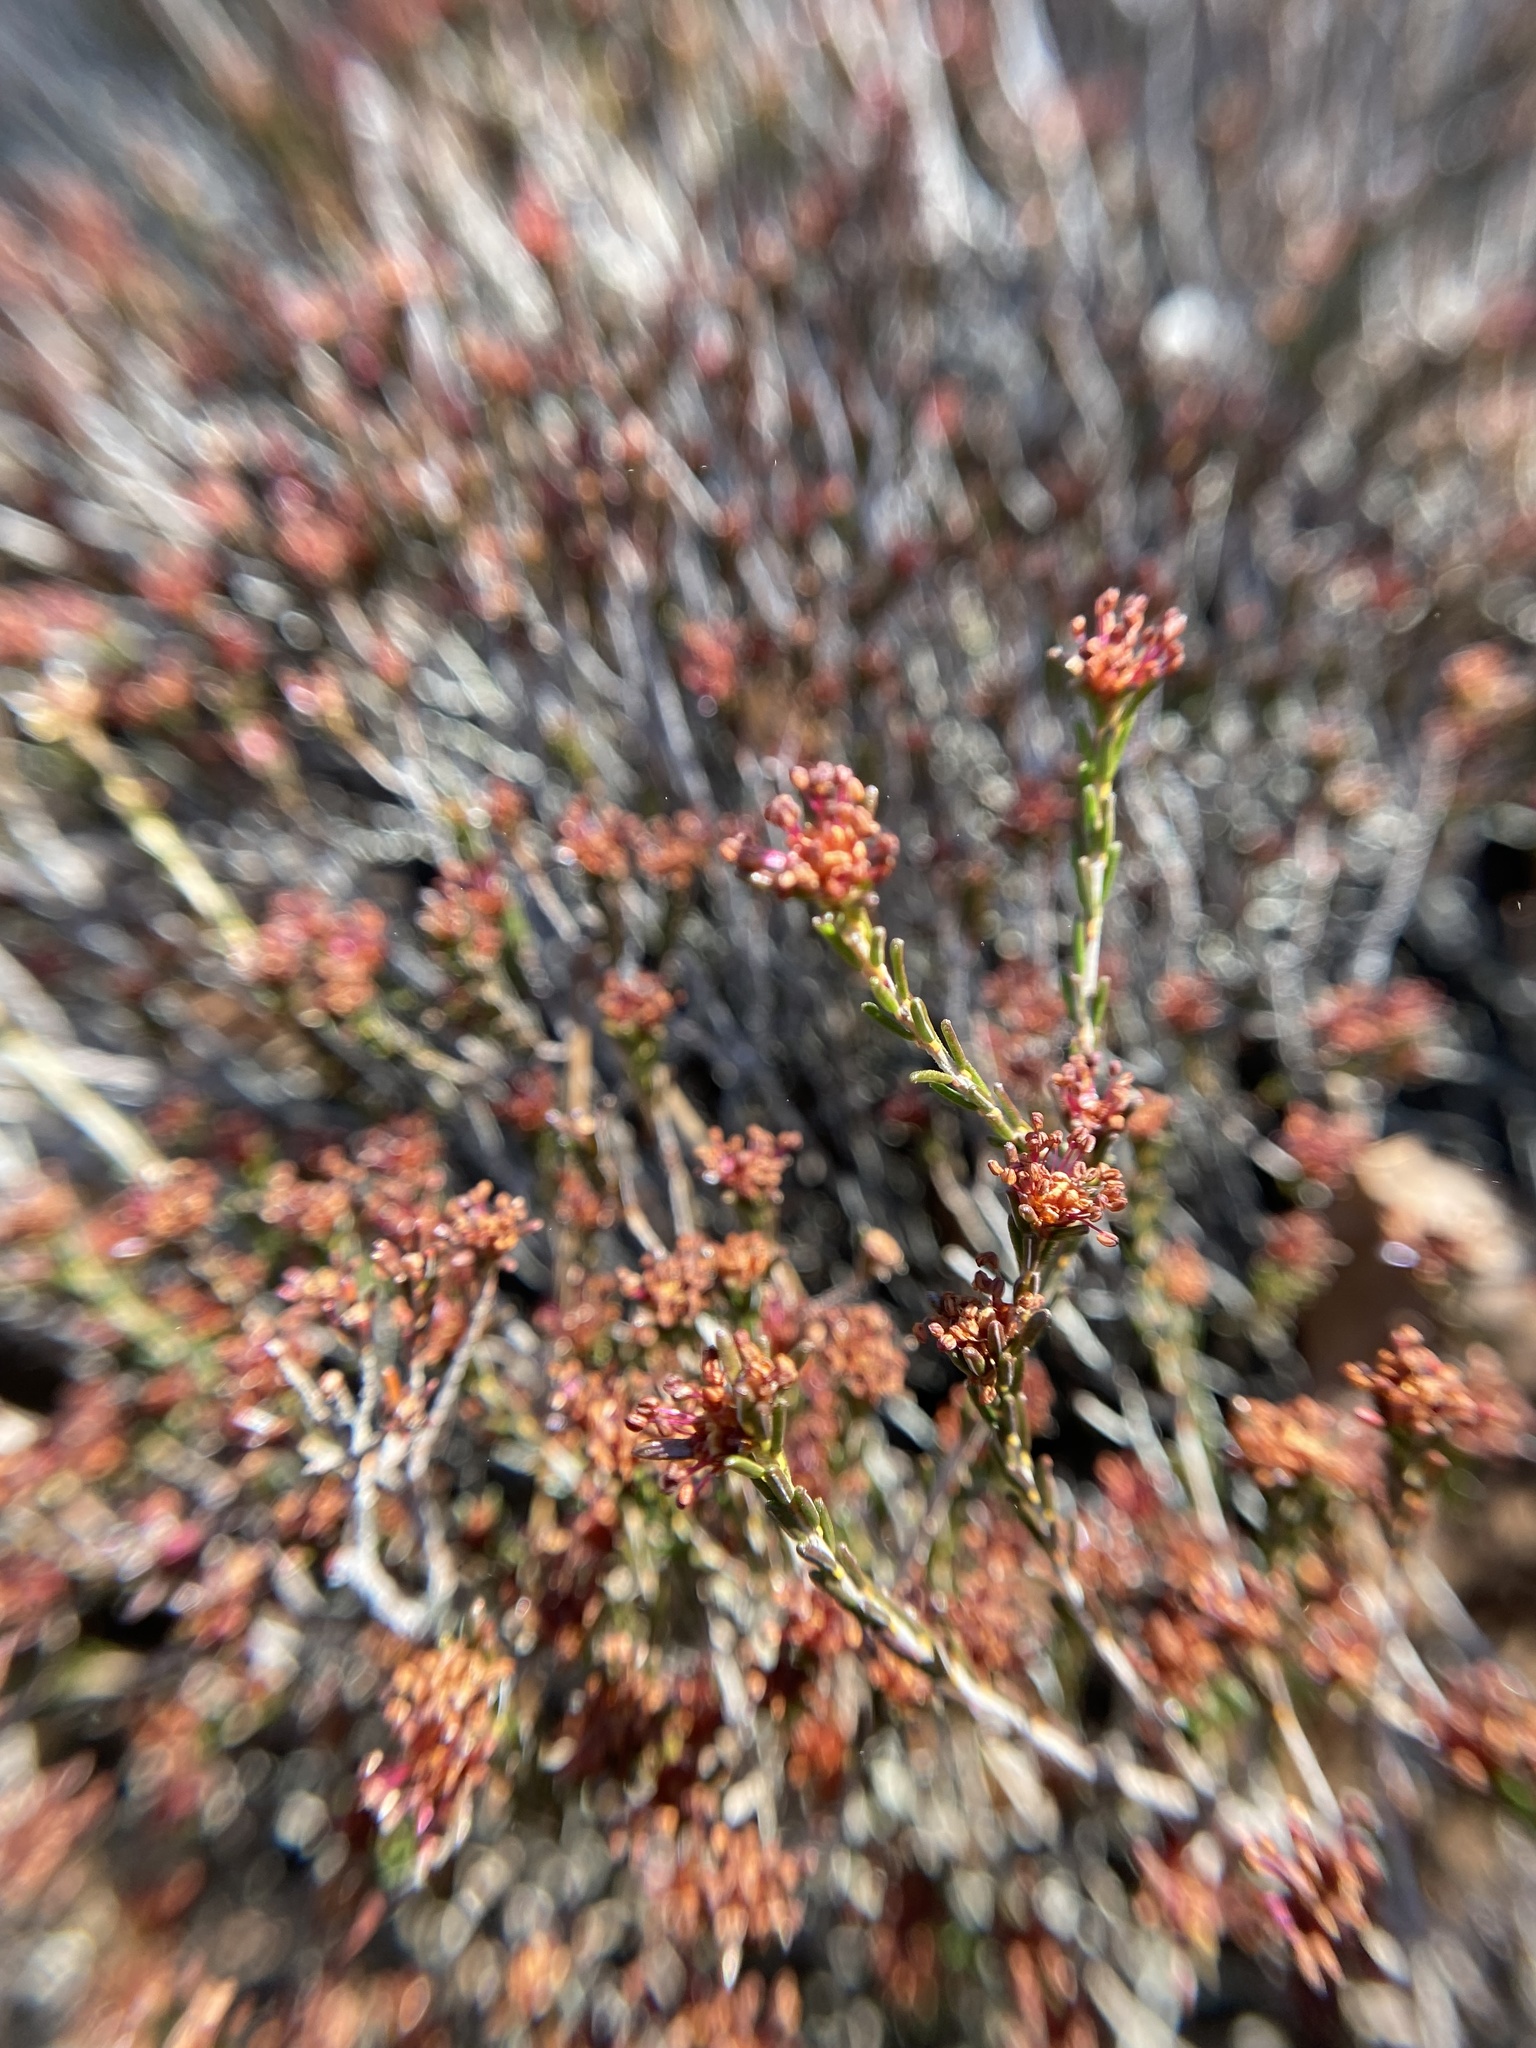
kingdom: Plantae
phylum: Tracheophyta
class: Magnoliopsida
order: Ericales
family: Ericaceae
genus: Corema
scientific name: Corema conradii
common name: Broom-crowberry
